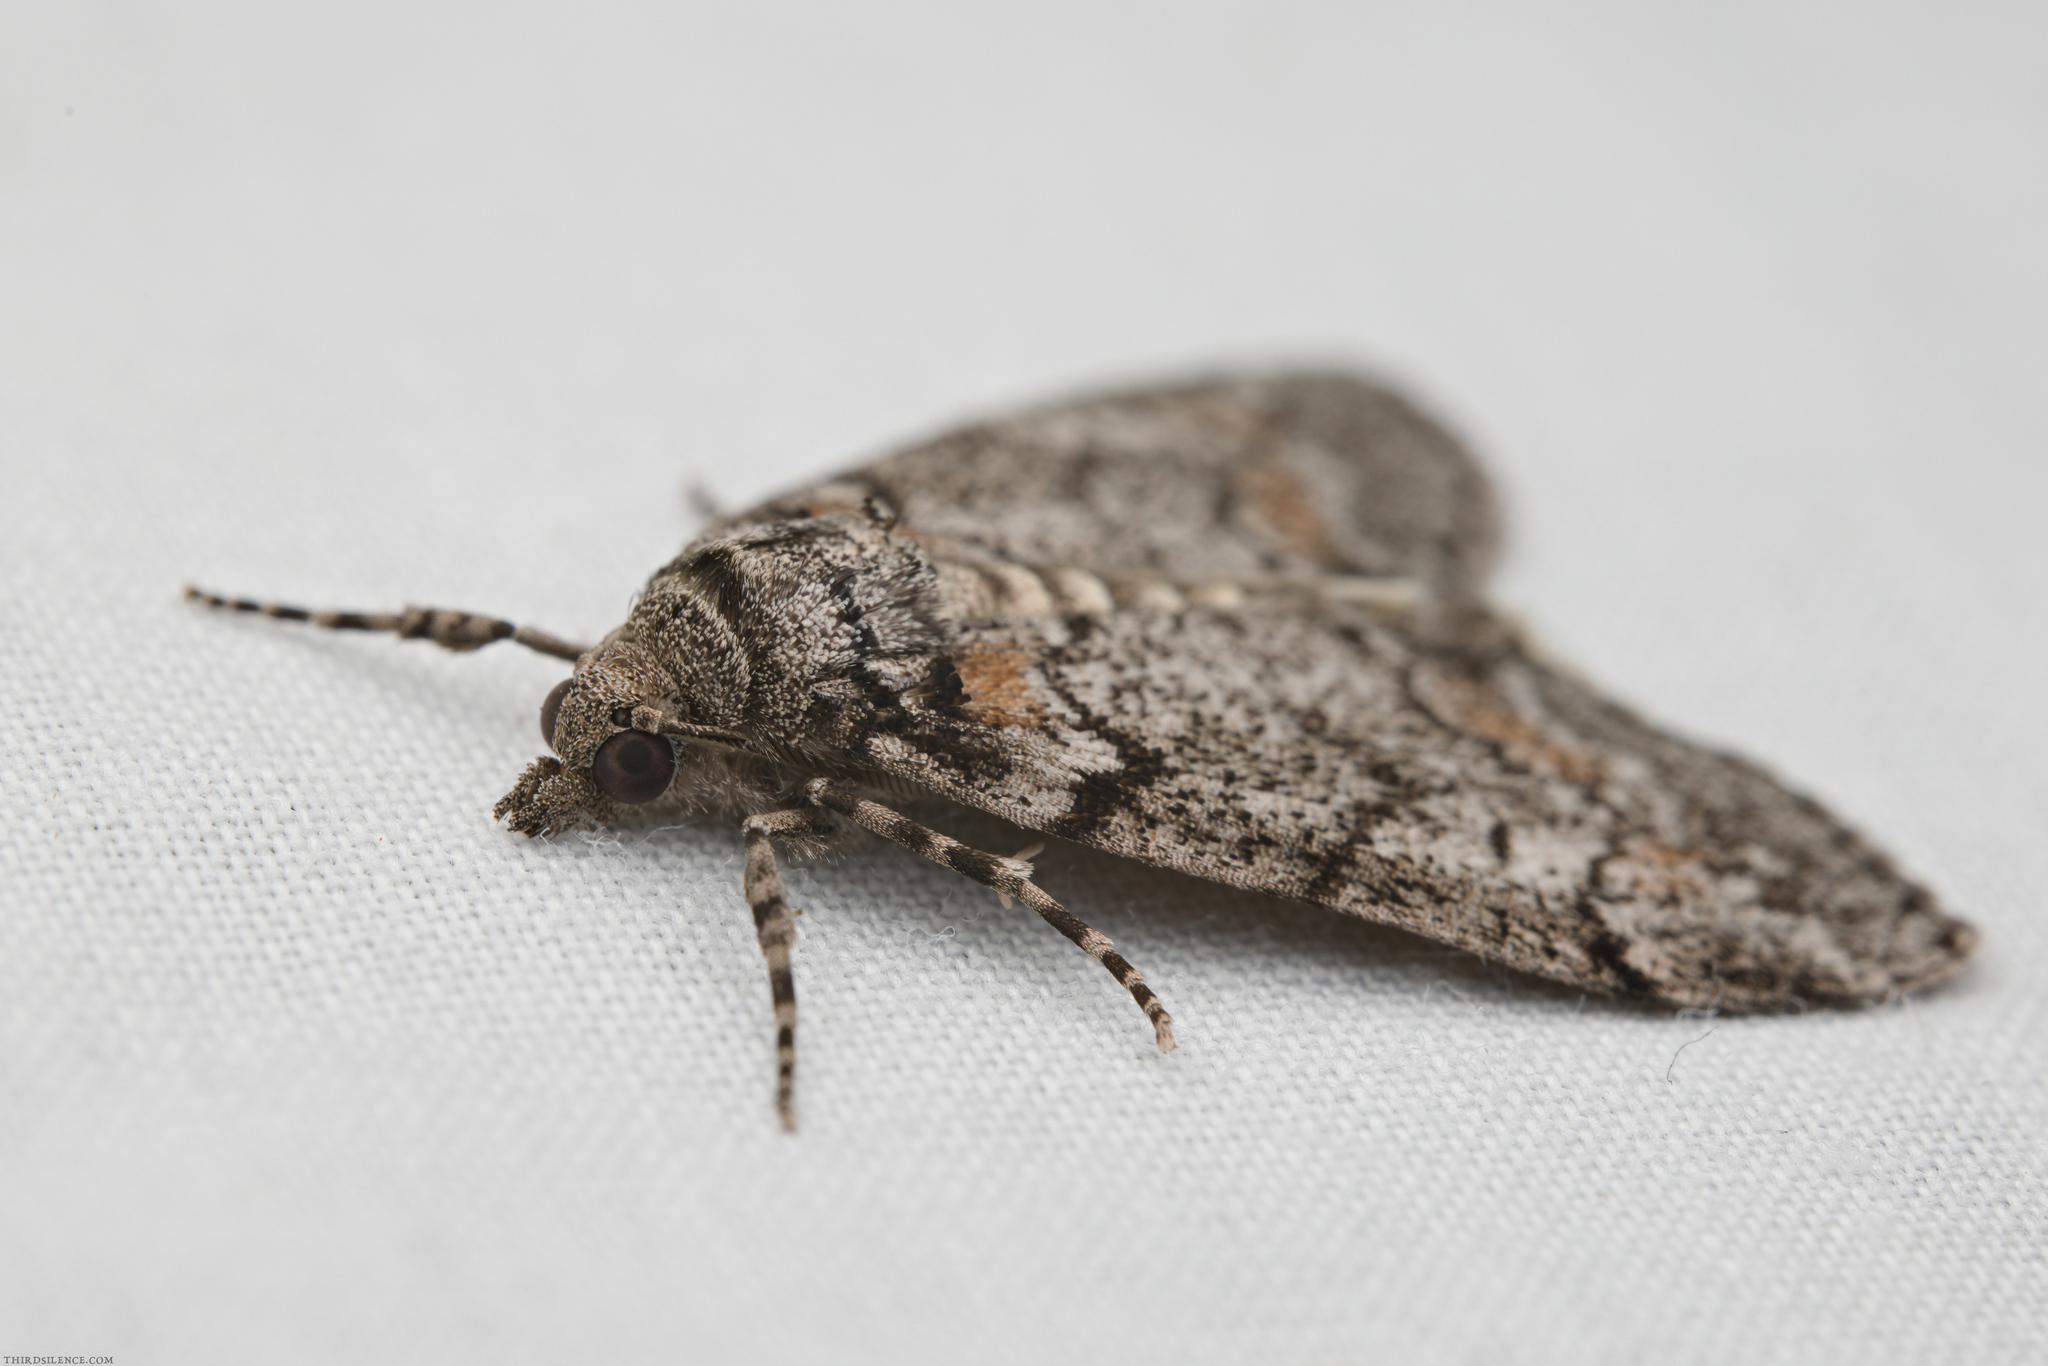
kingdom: Animalia
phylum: Arthropoda
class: Insecta
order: Lepidoptera
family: Geometridae
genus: Smyriodes
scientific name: Smyriodes trigramma
